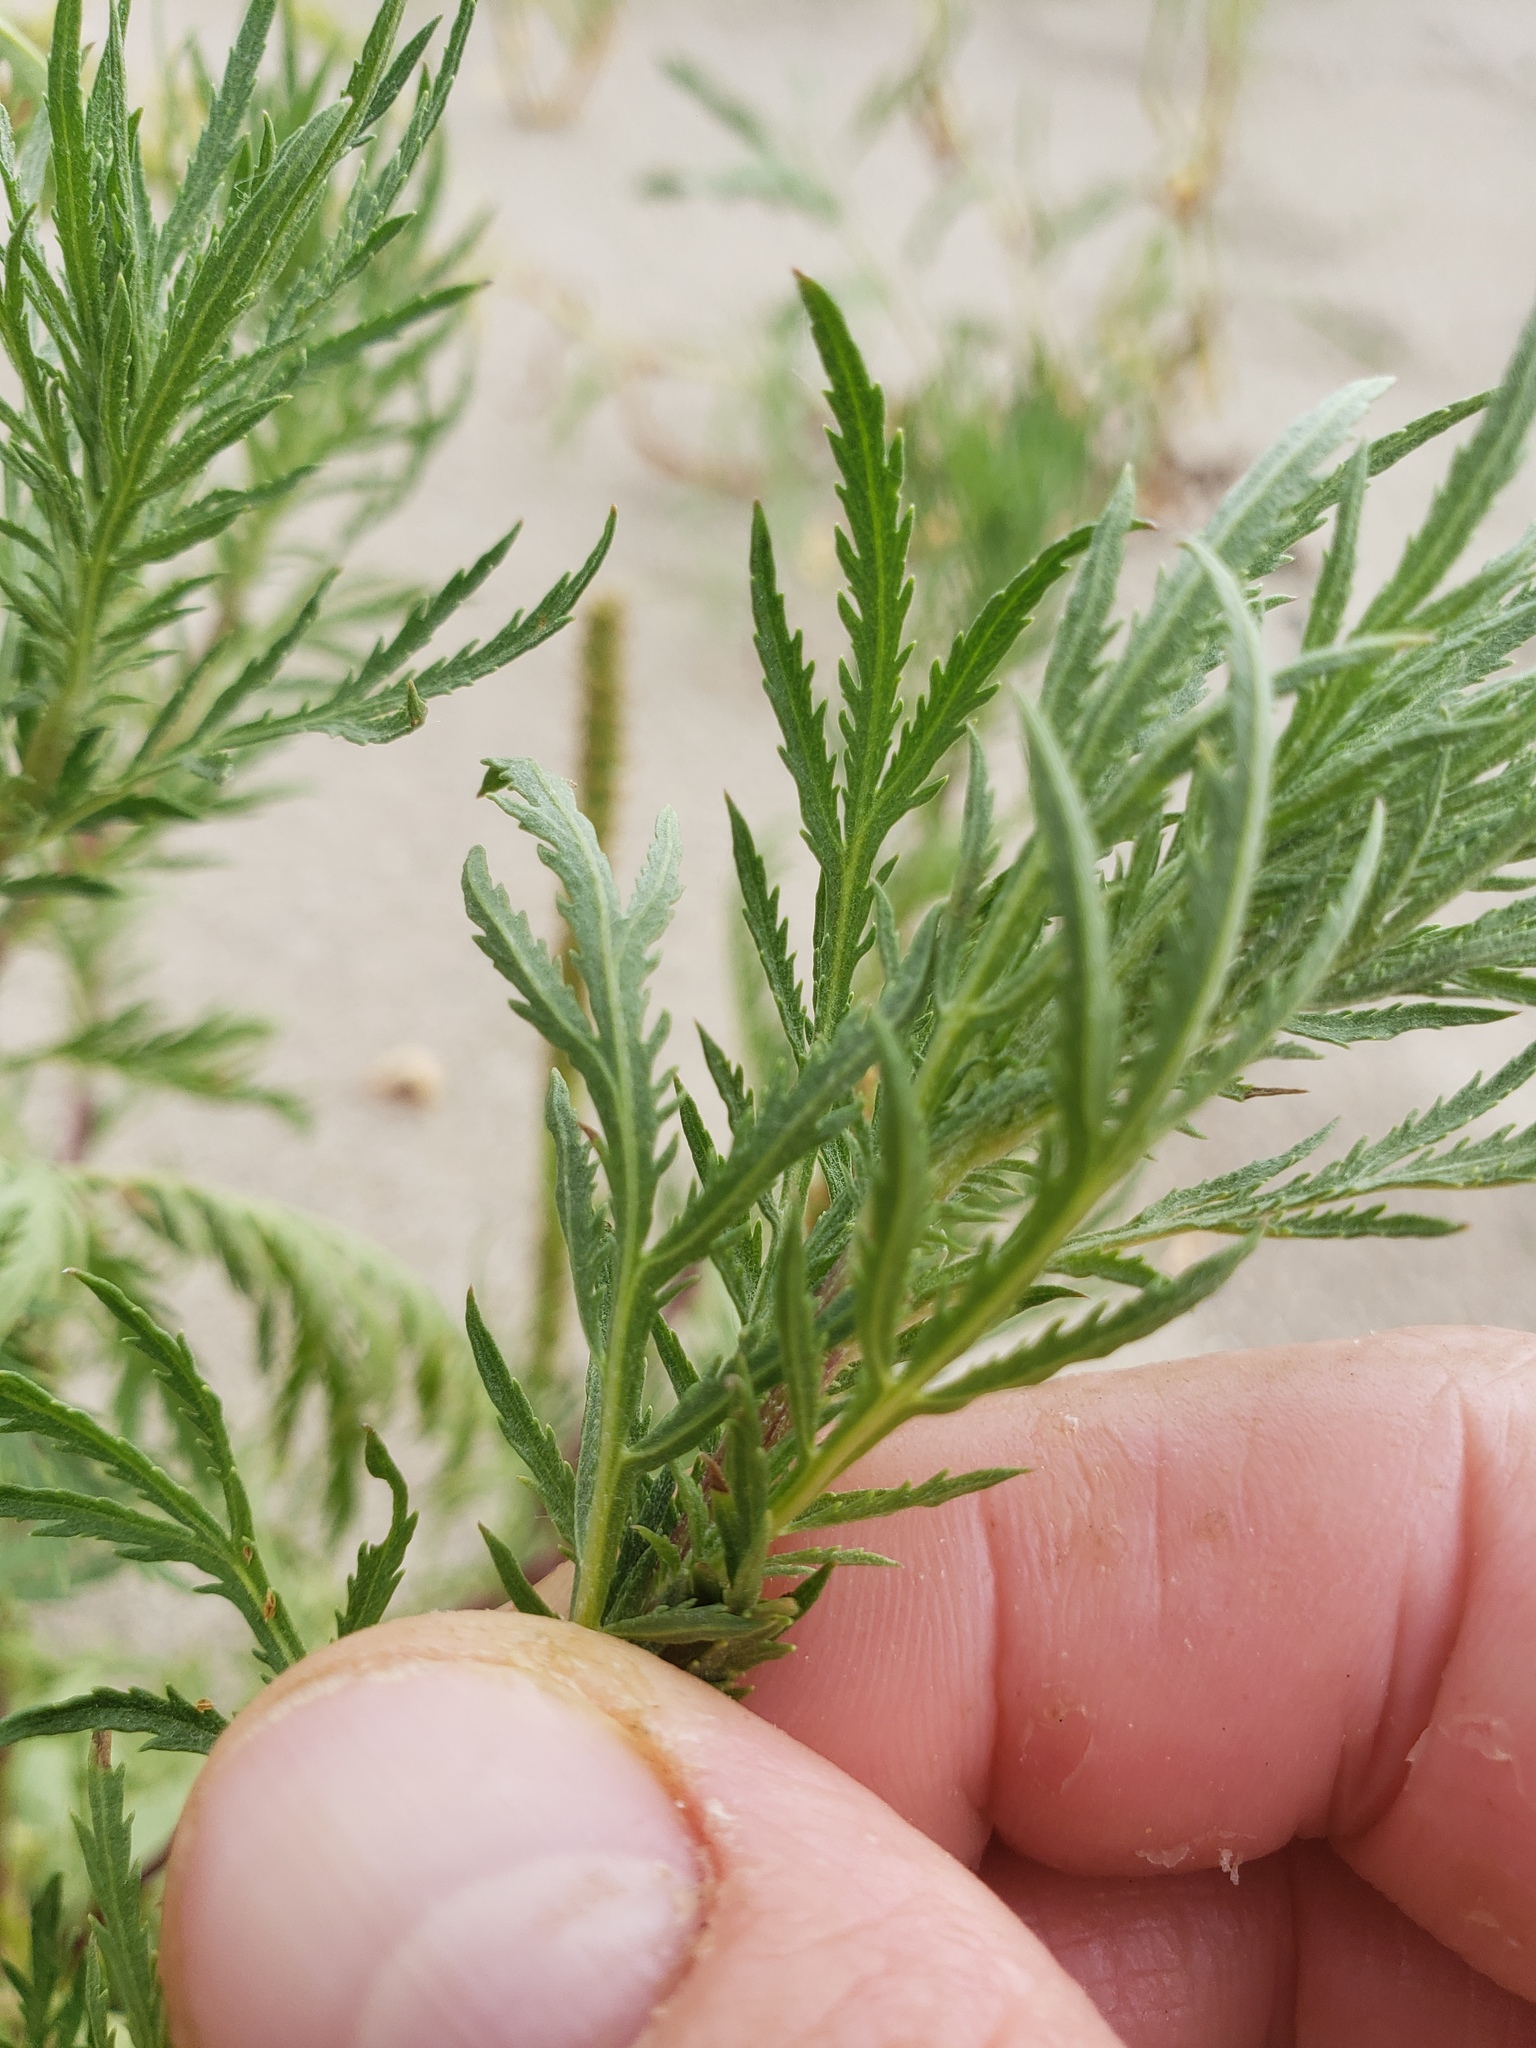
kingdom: Plantae
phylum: Tracheophyta
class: Magnoliopsida
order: Asterales
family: Asteraceae
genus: Artemisia
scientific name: Artemisia biennis
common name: Biennial wormwood
